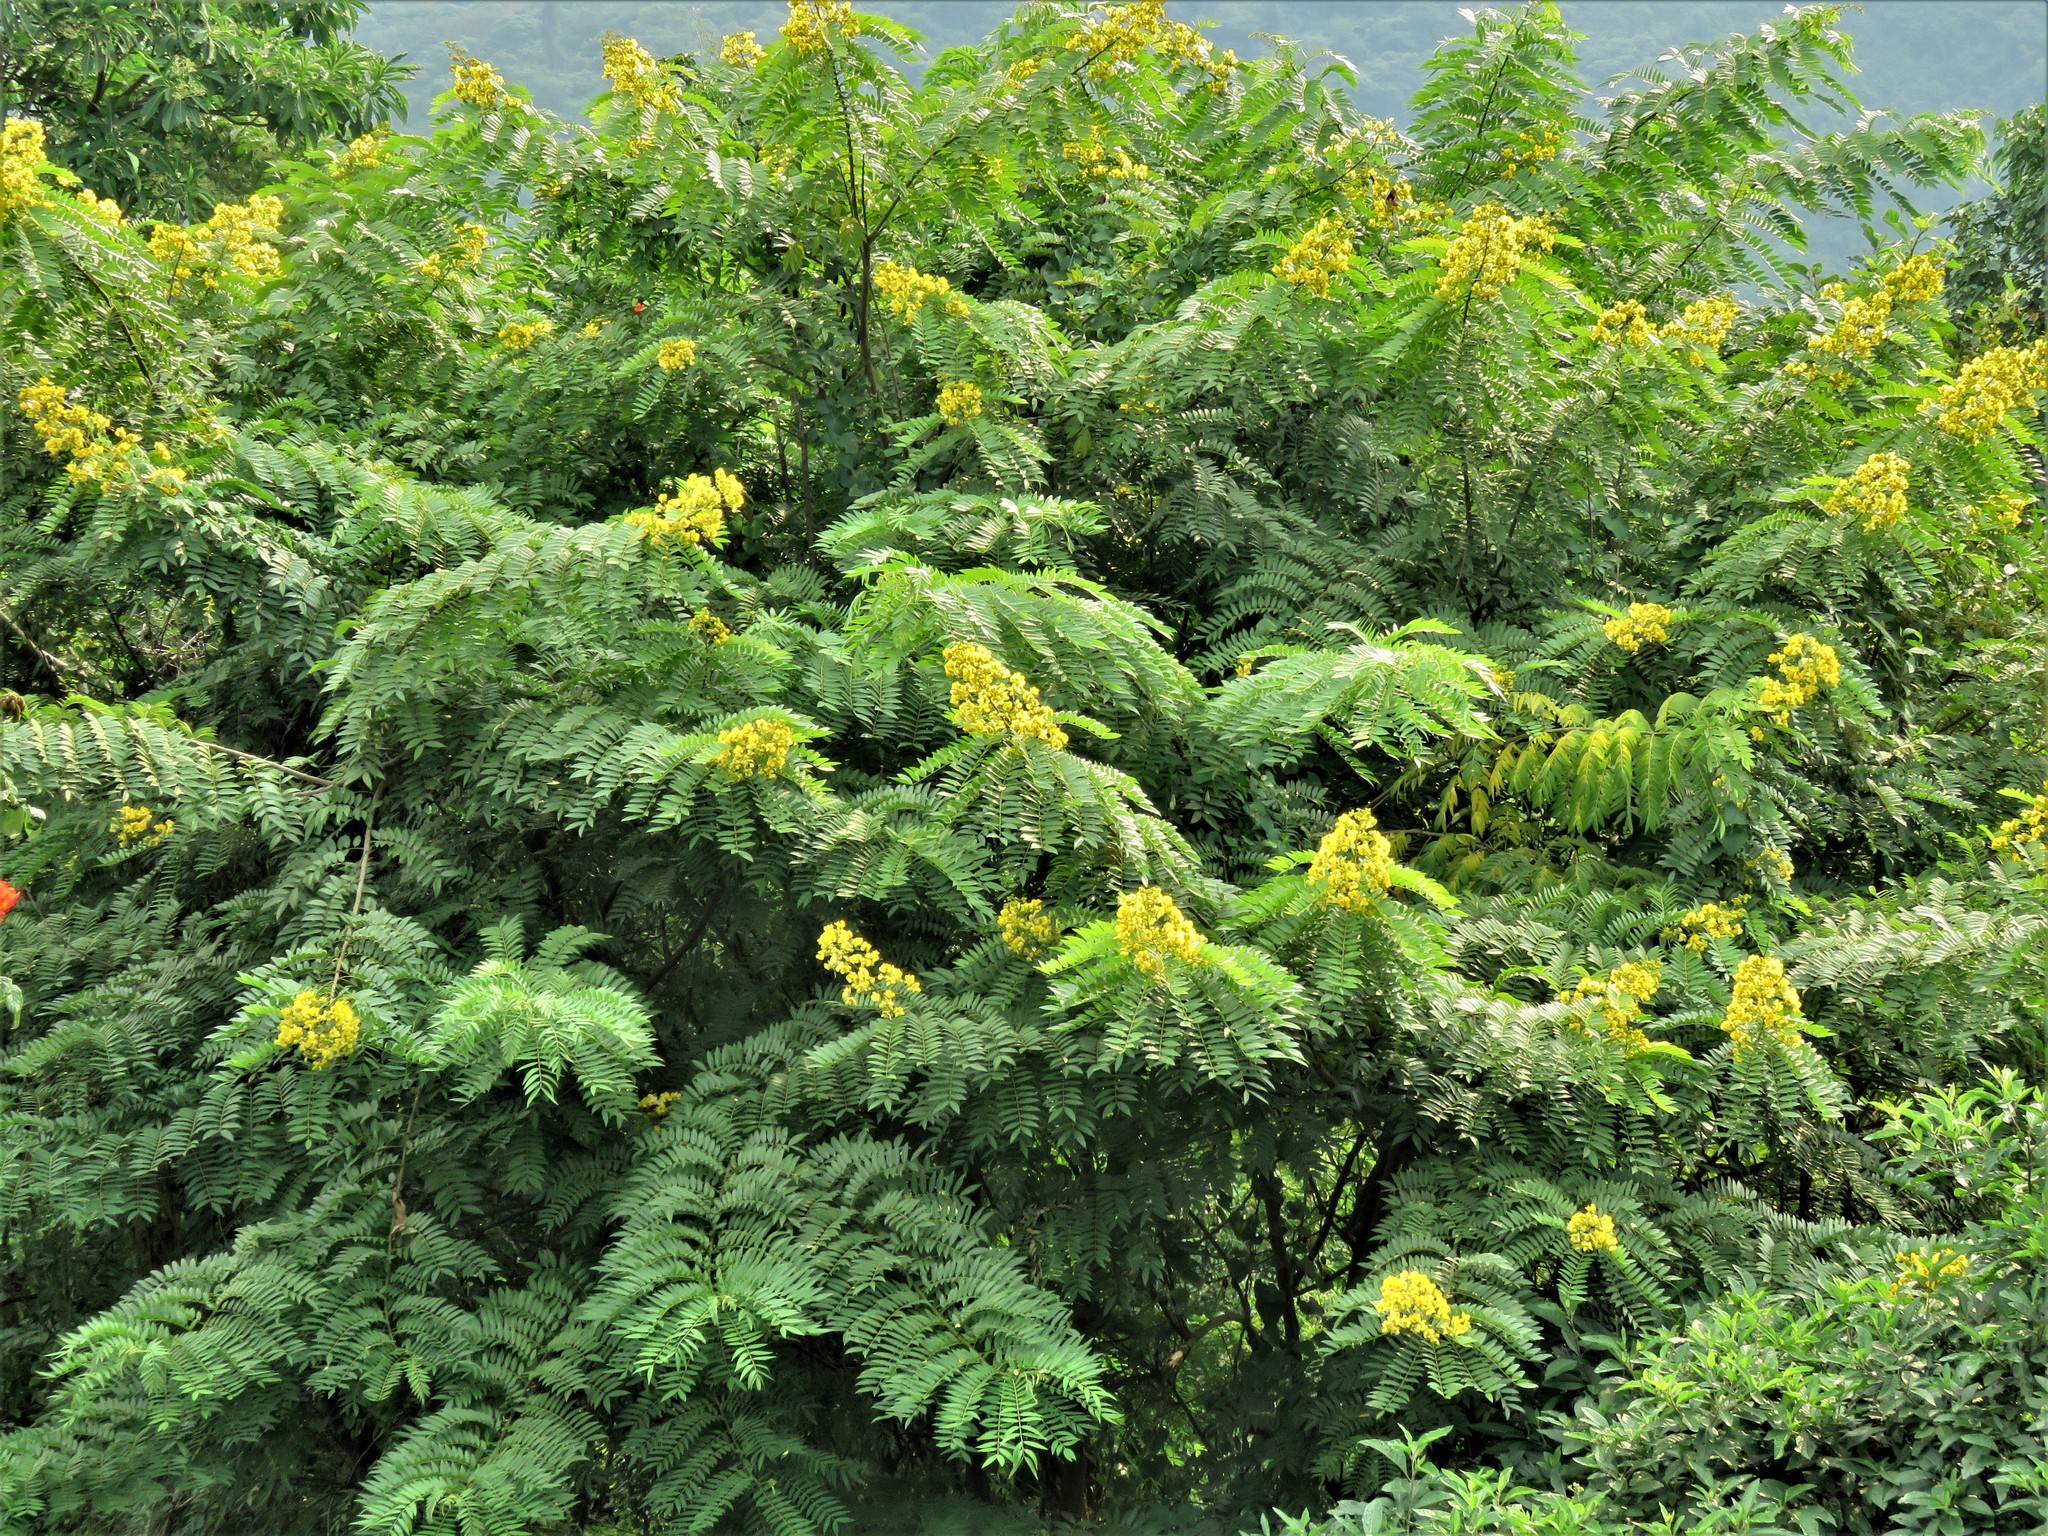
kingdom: Plantae
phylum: Tracheophyta
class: Magnoliopsida
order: Fabales
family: Fabaceae
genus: Senna
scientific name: Senna spectabilis
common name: Casia amarilla
